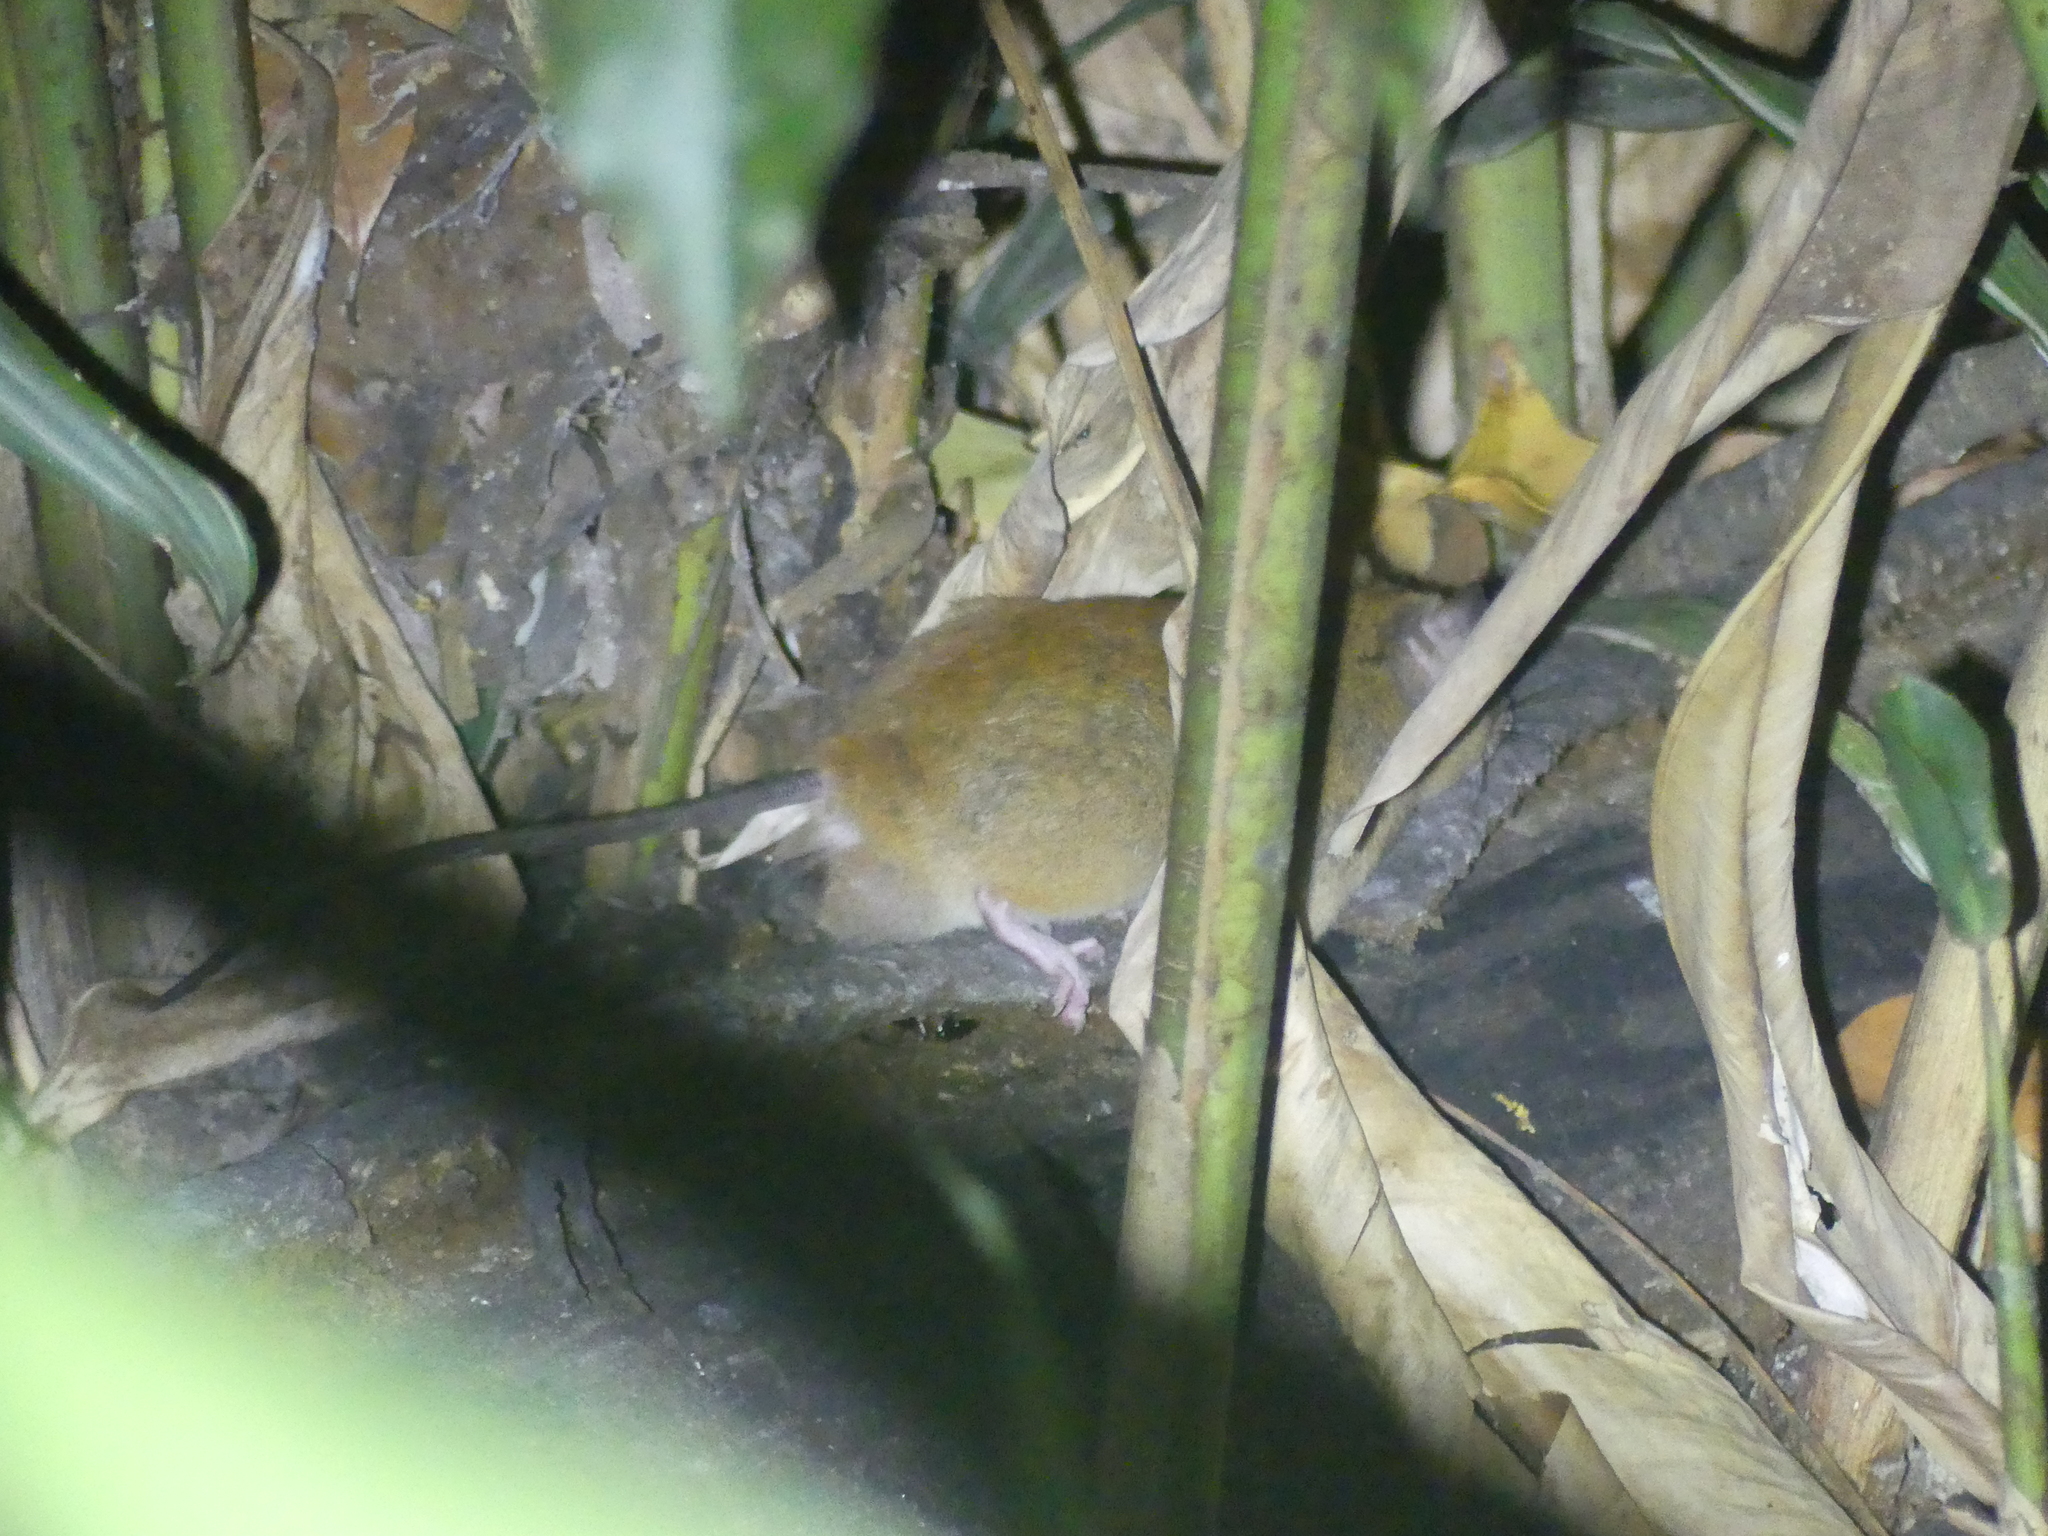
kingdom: Animalia
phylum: Chordata
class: Mammalia
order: Rodentia
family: Muridae
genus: Melomys
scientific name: Melomys cervinipes
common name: Fawn-footed melomys
